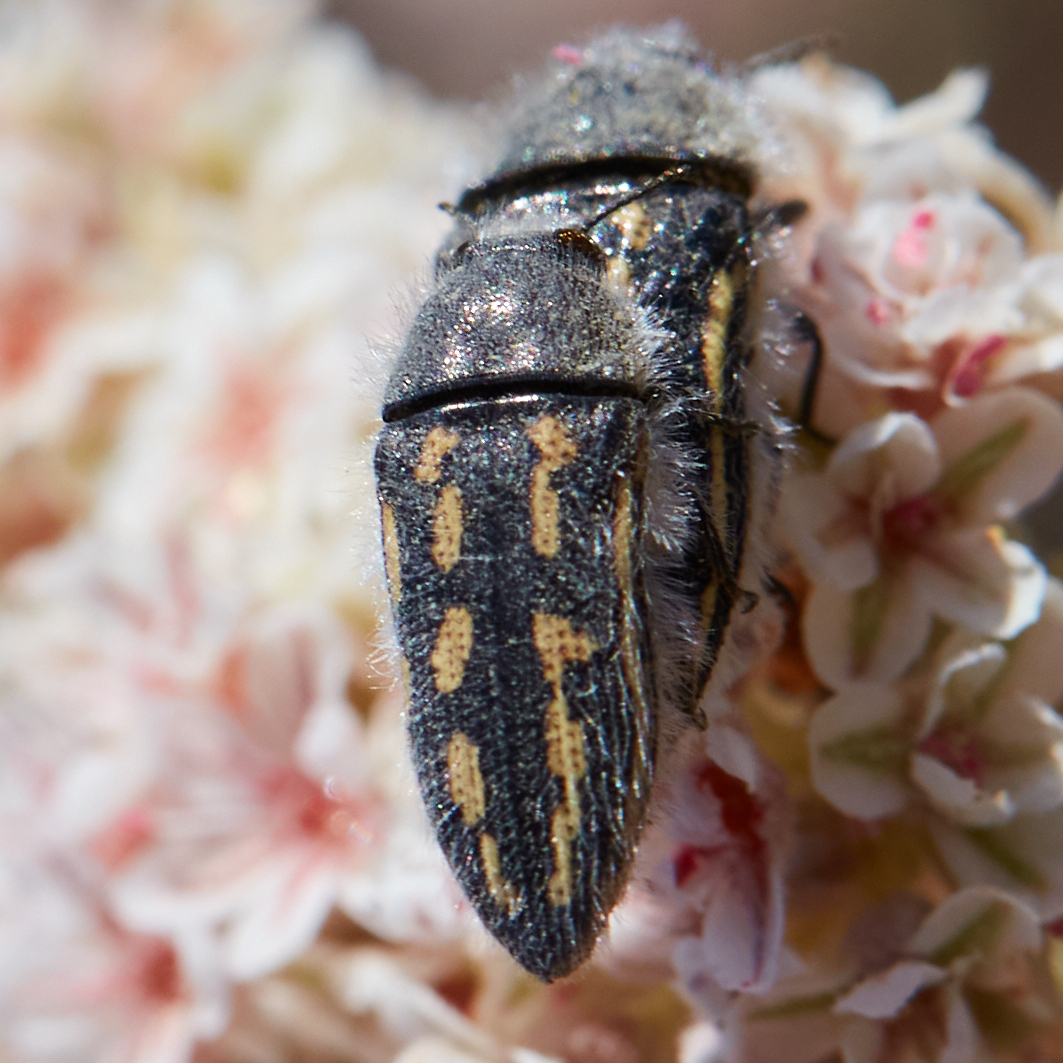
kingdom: Animalia
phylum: Arthropoda
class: Insecta
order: Coleoptera
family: Buprestidae
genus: Acmaeodera
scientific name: Acmaeodera pubiventris
